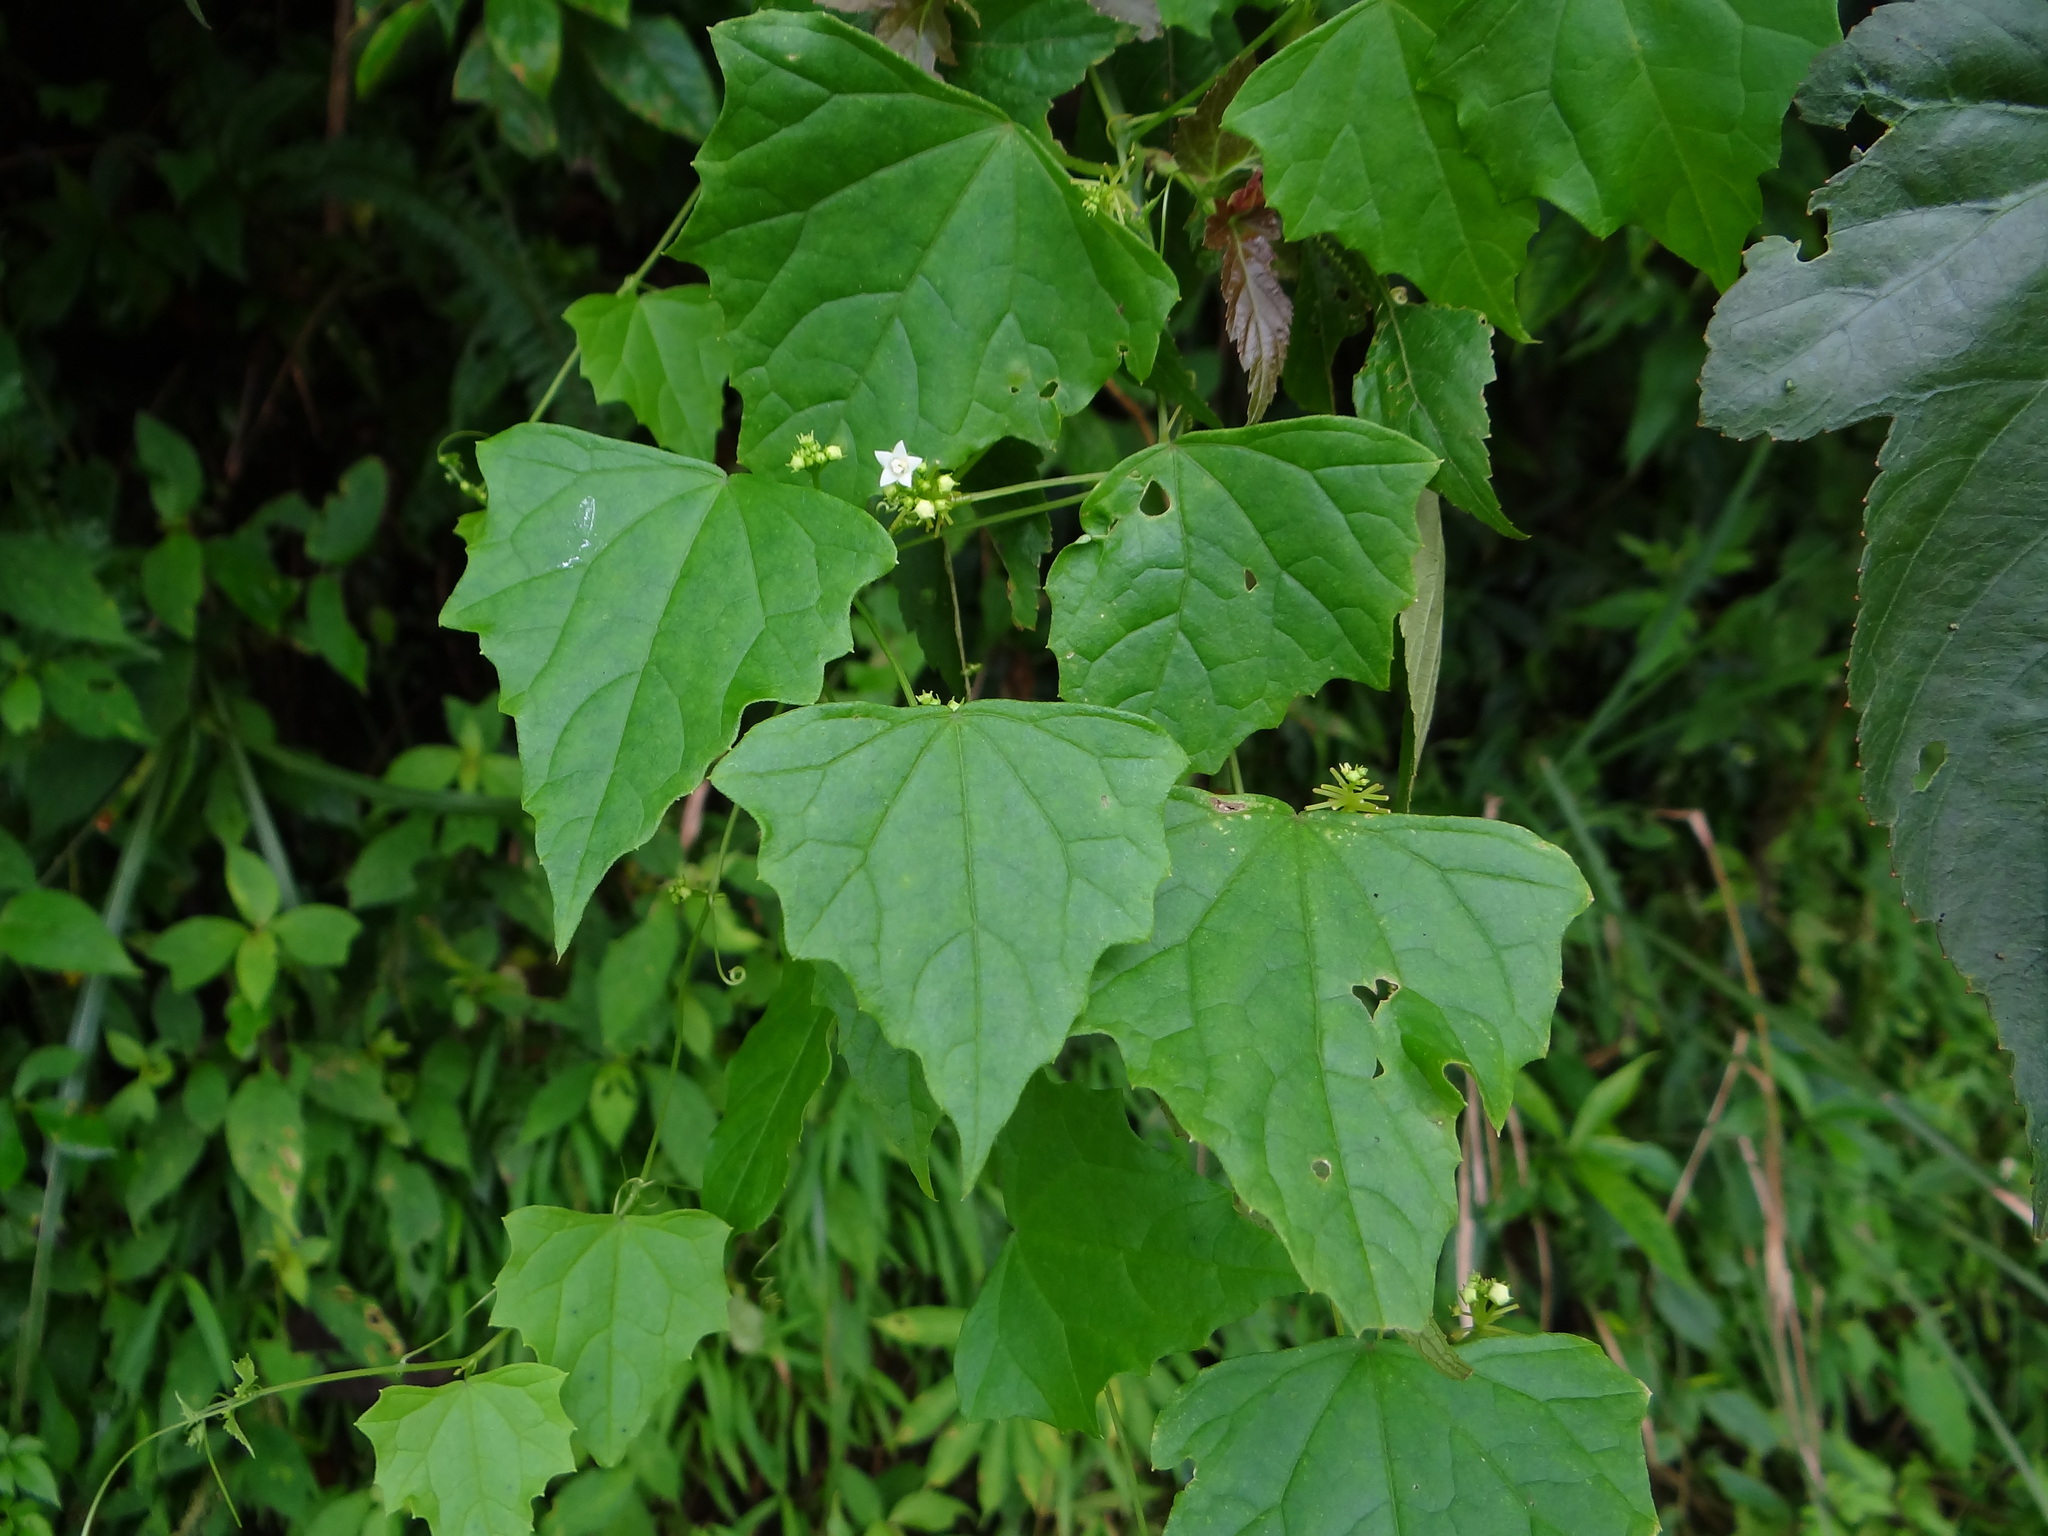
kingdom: Plantae
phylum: Tracheophyta
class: Magnoliopsida
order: Cucurbitales
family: Cucurbitaceae
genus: Zehneria
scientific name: Zehneria guamensis
